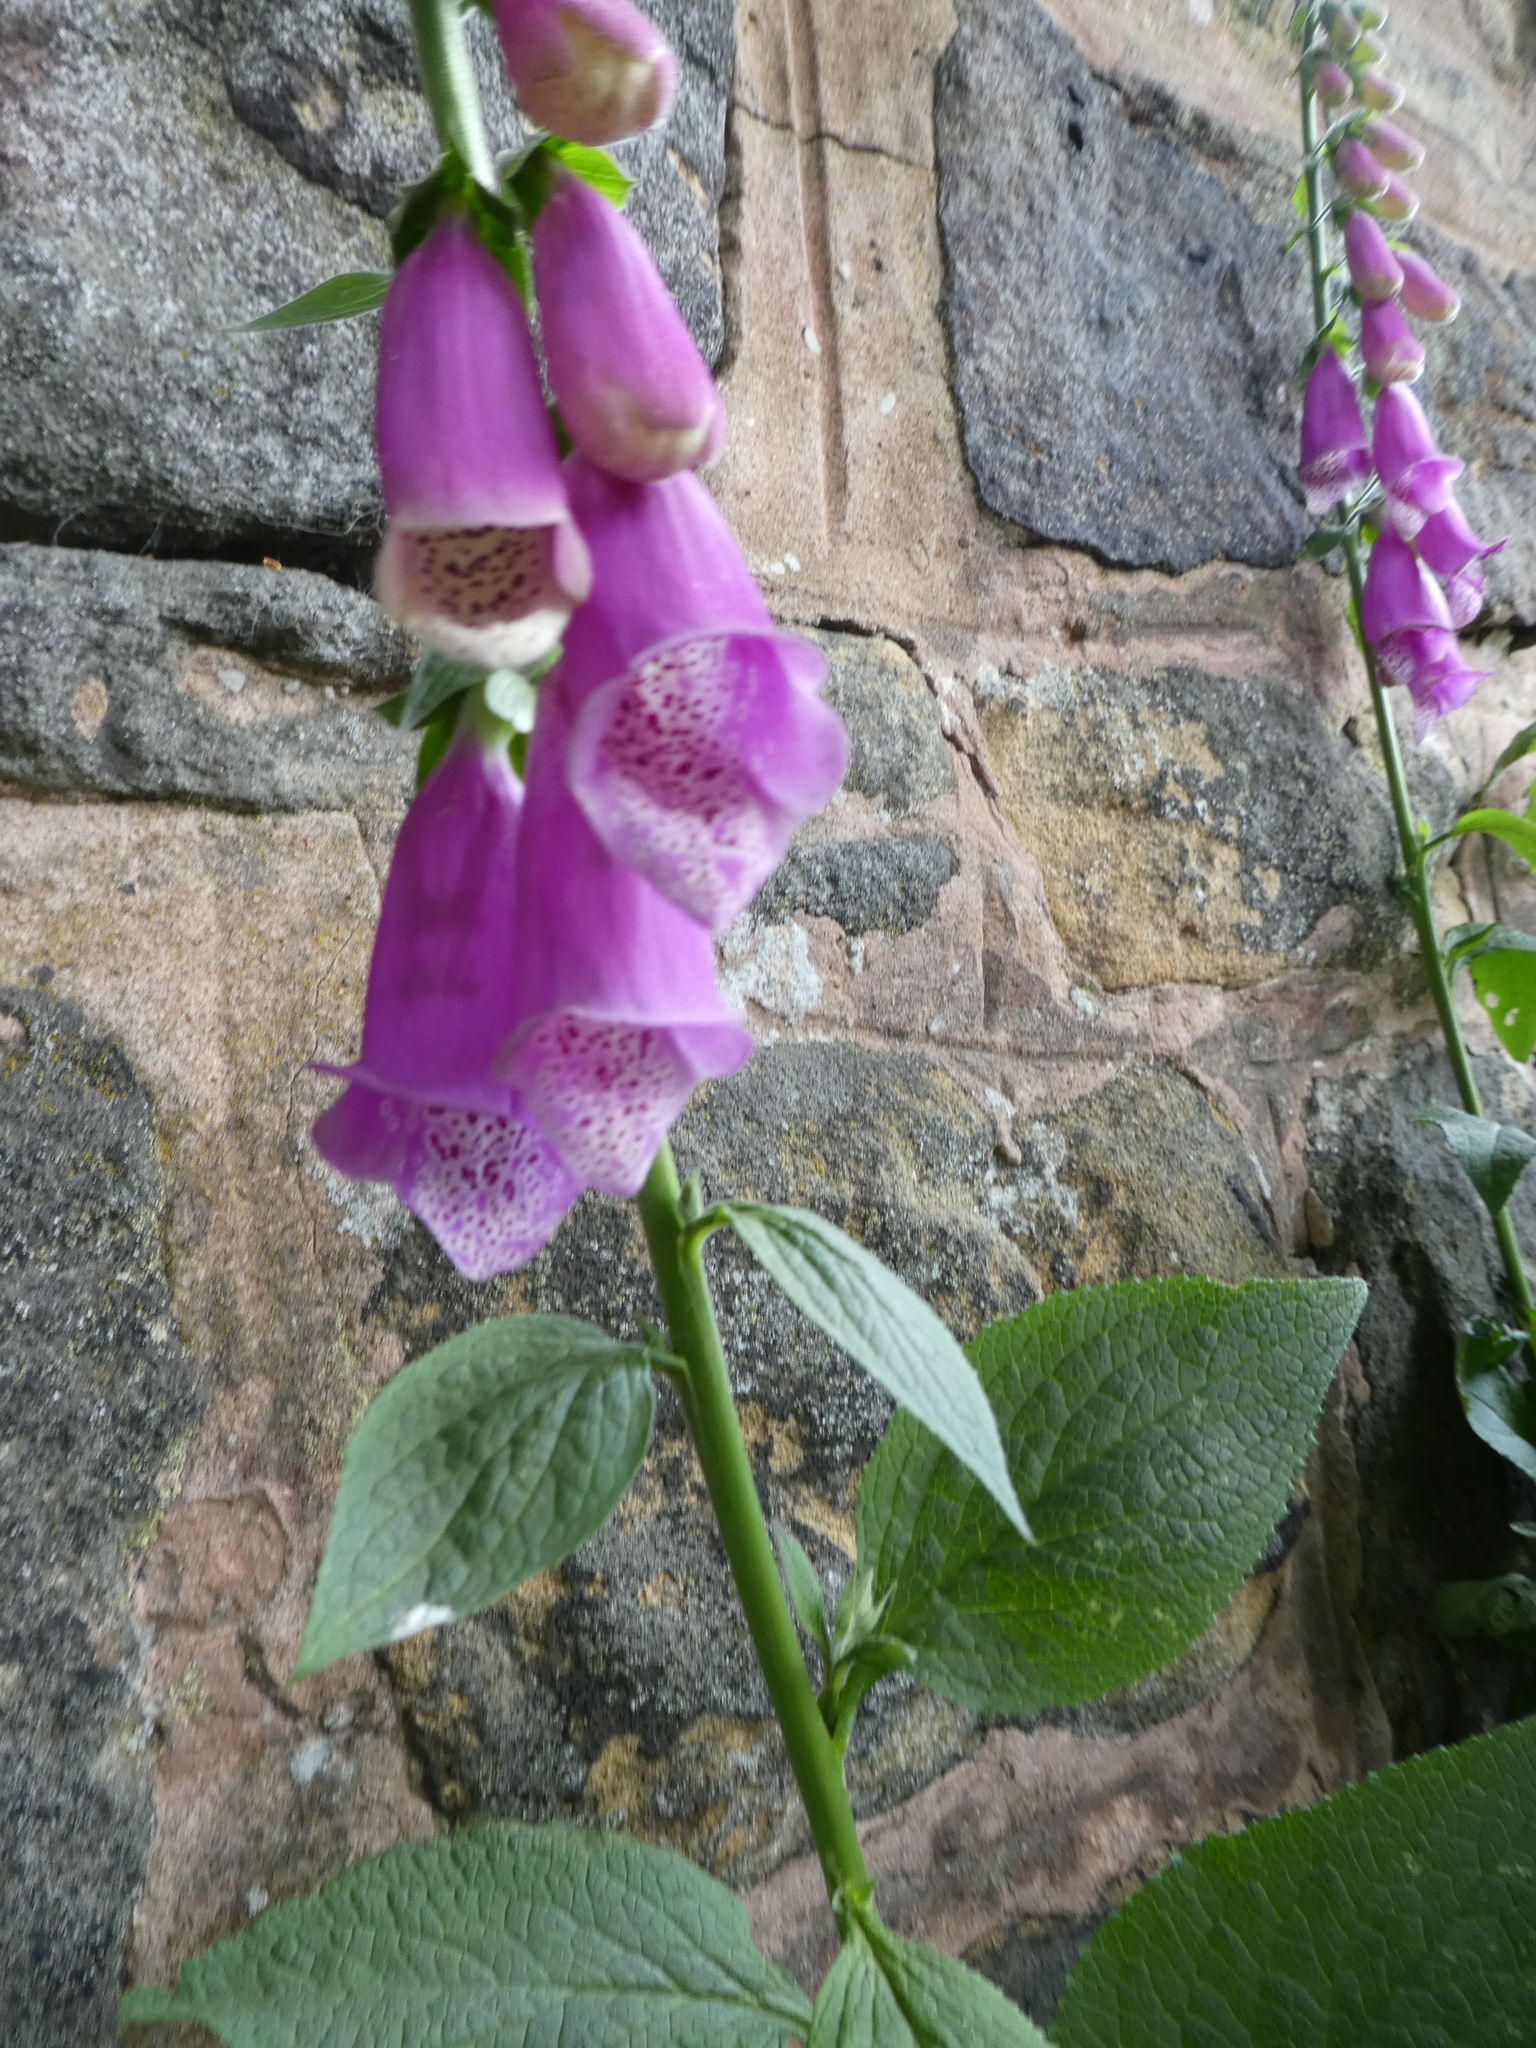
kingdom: Plantae
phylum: Tracheophyta
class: Magnoliopsida
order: Lamiales
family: Plantaginaceae
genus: Digitalis
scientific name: Digitalis purpurea
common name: Foxglove
